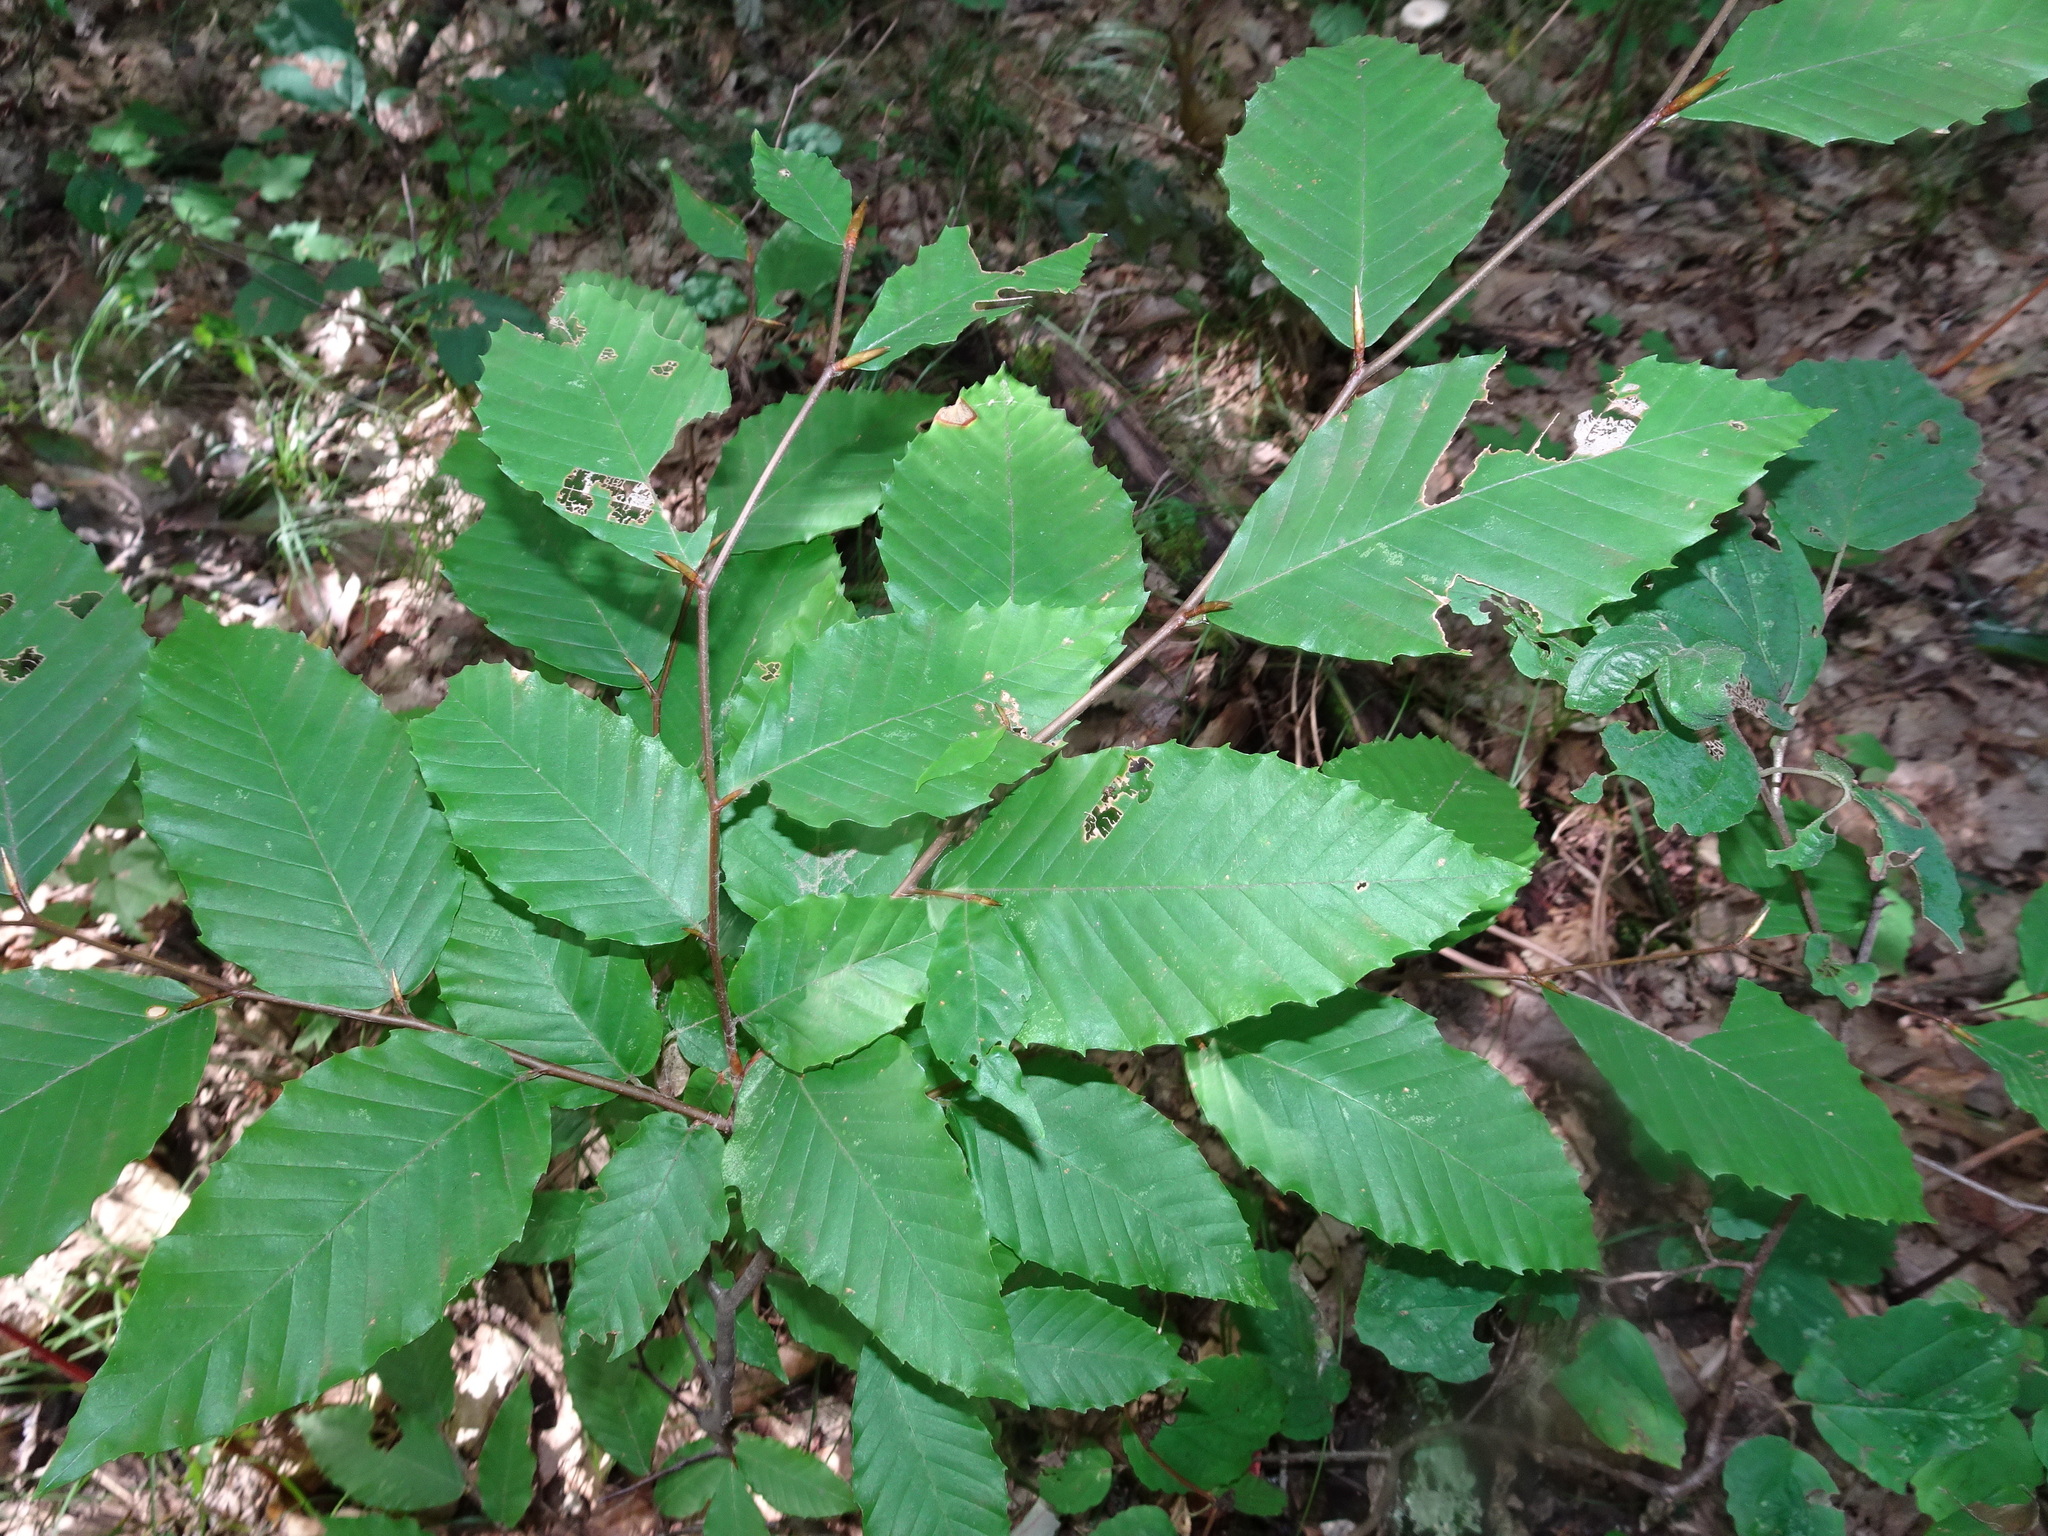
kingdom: Plantae
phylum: Tracheophyta
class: Magnoliopsida
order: Fagales
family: Fagaceae
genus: Fagus
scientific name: Fagus grandifolia
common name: American beech
